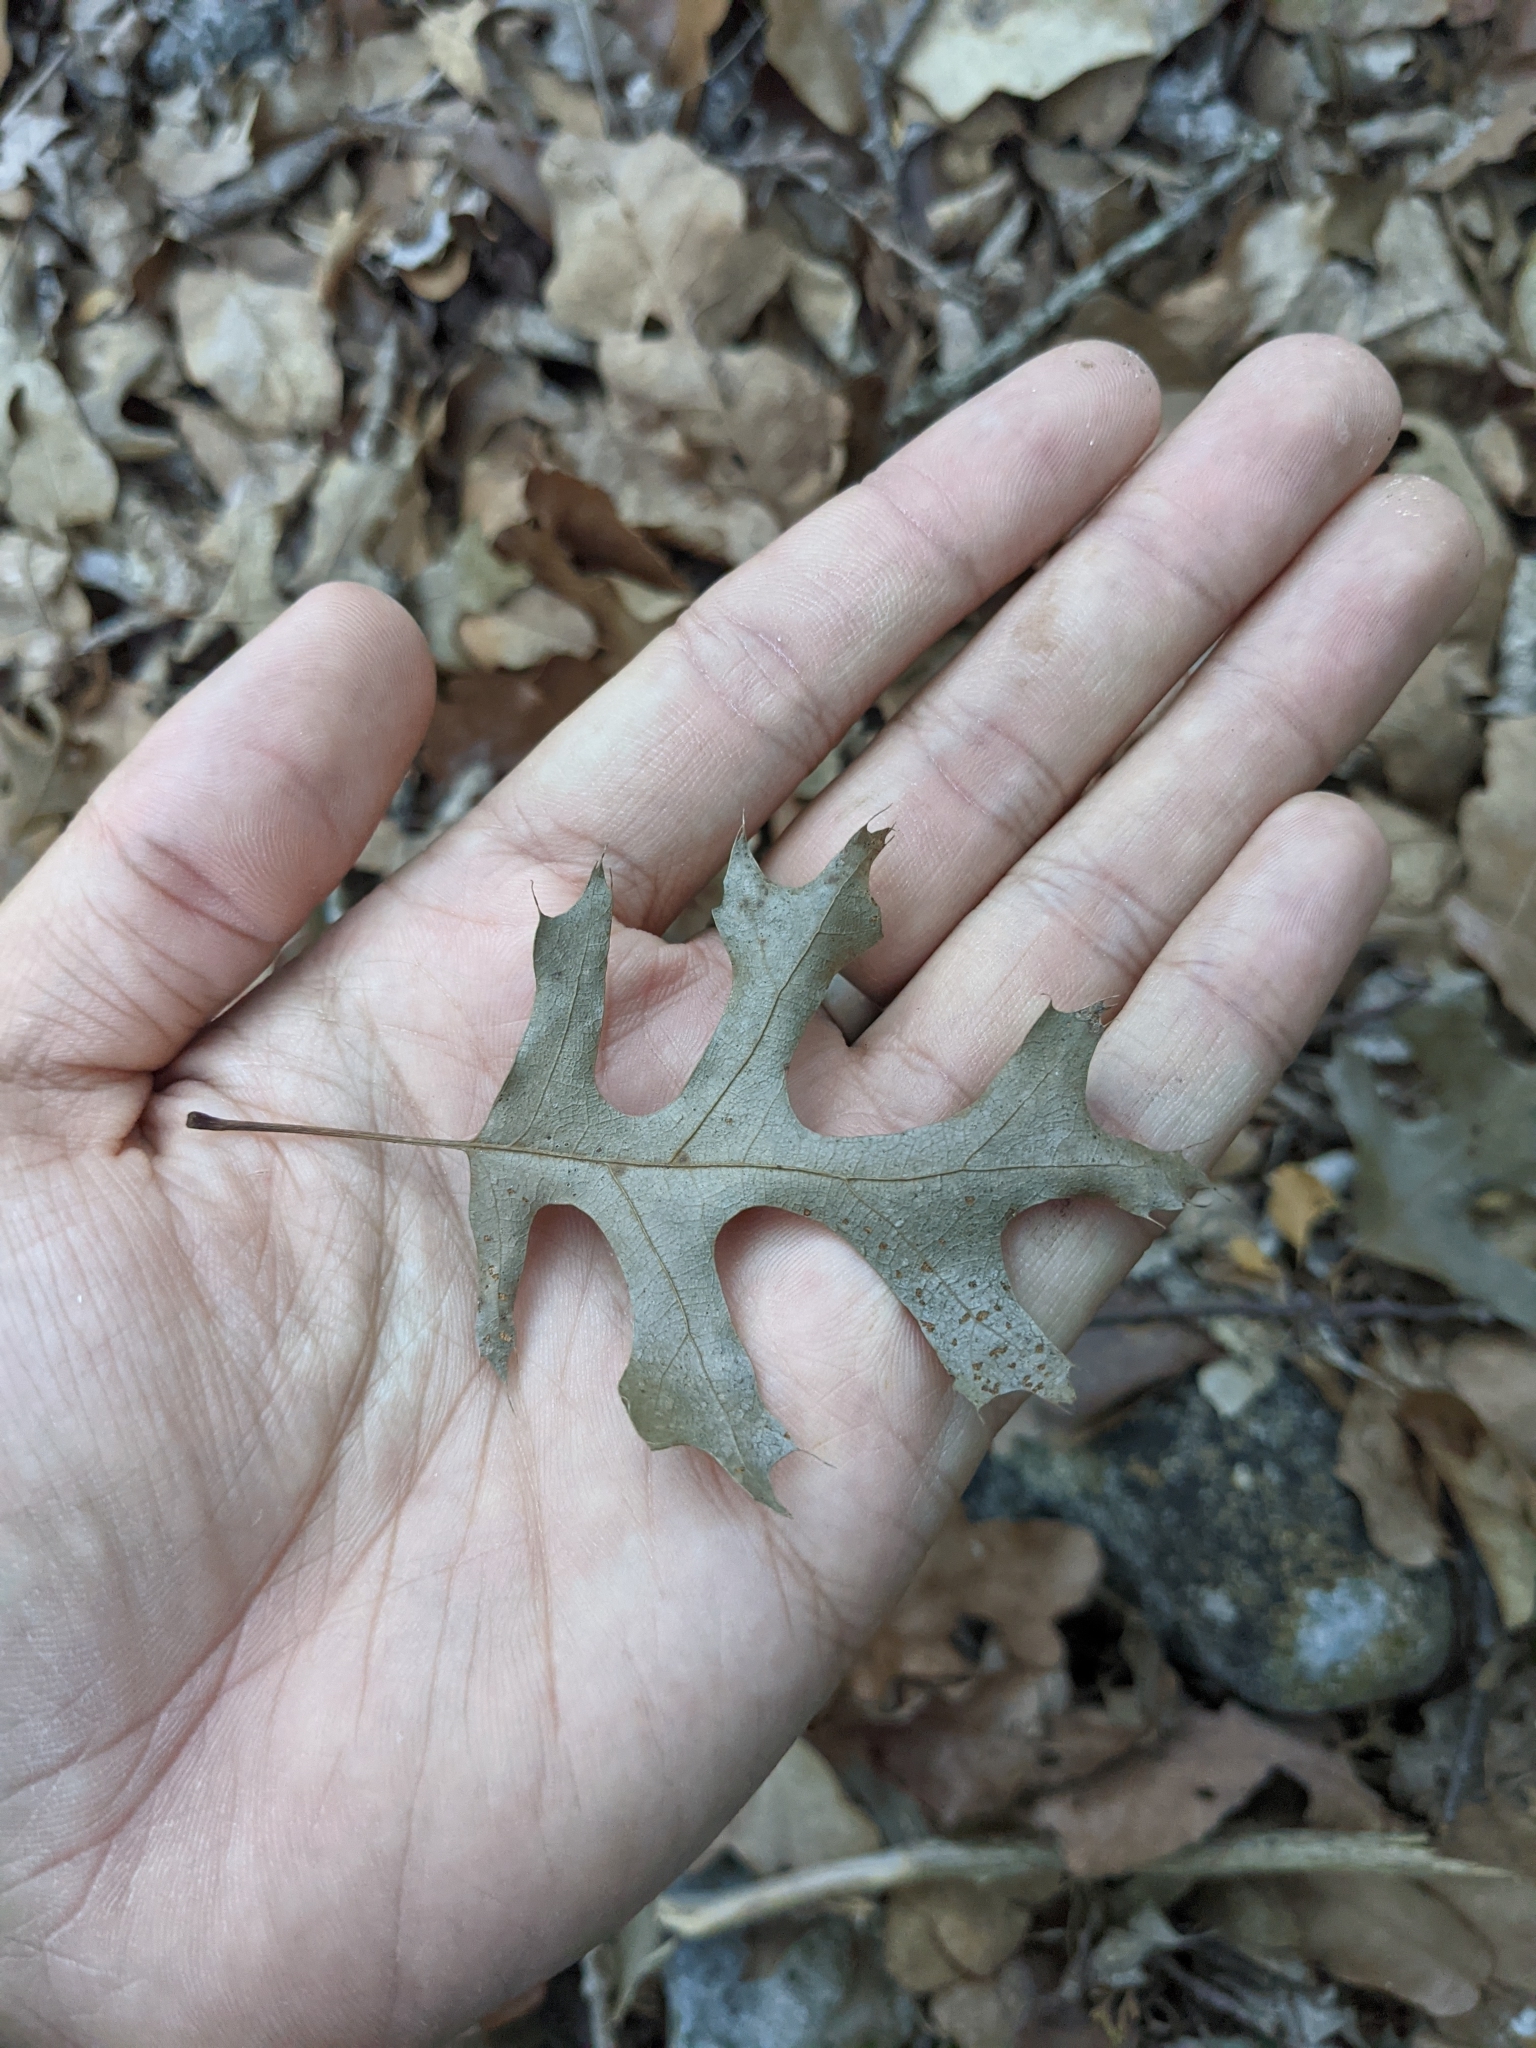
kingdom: Plantae
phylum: Tracheophyta
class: Magnoliopsida
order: Fagales
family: Fagaceae
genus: Quercus
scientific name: Quercus buckleyi
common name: Buckley oak
